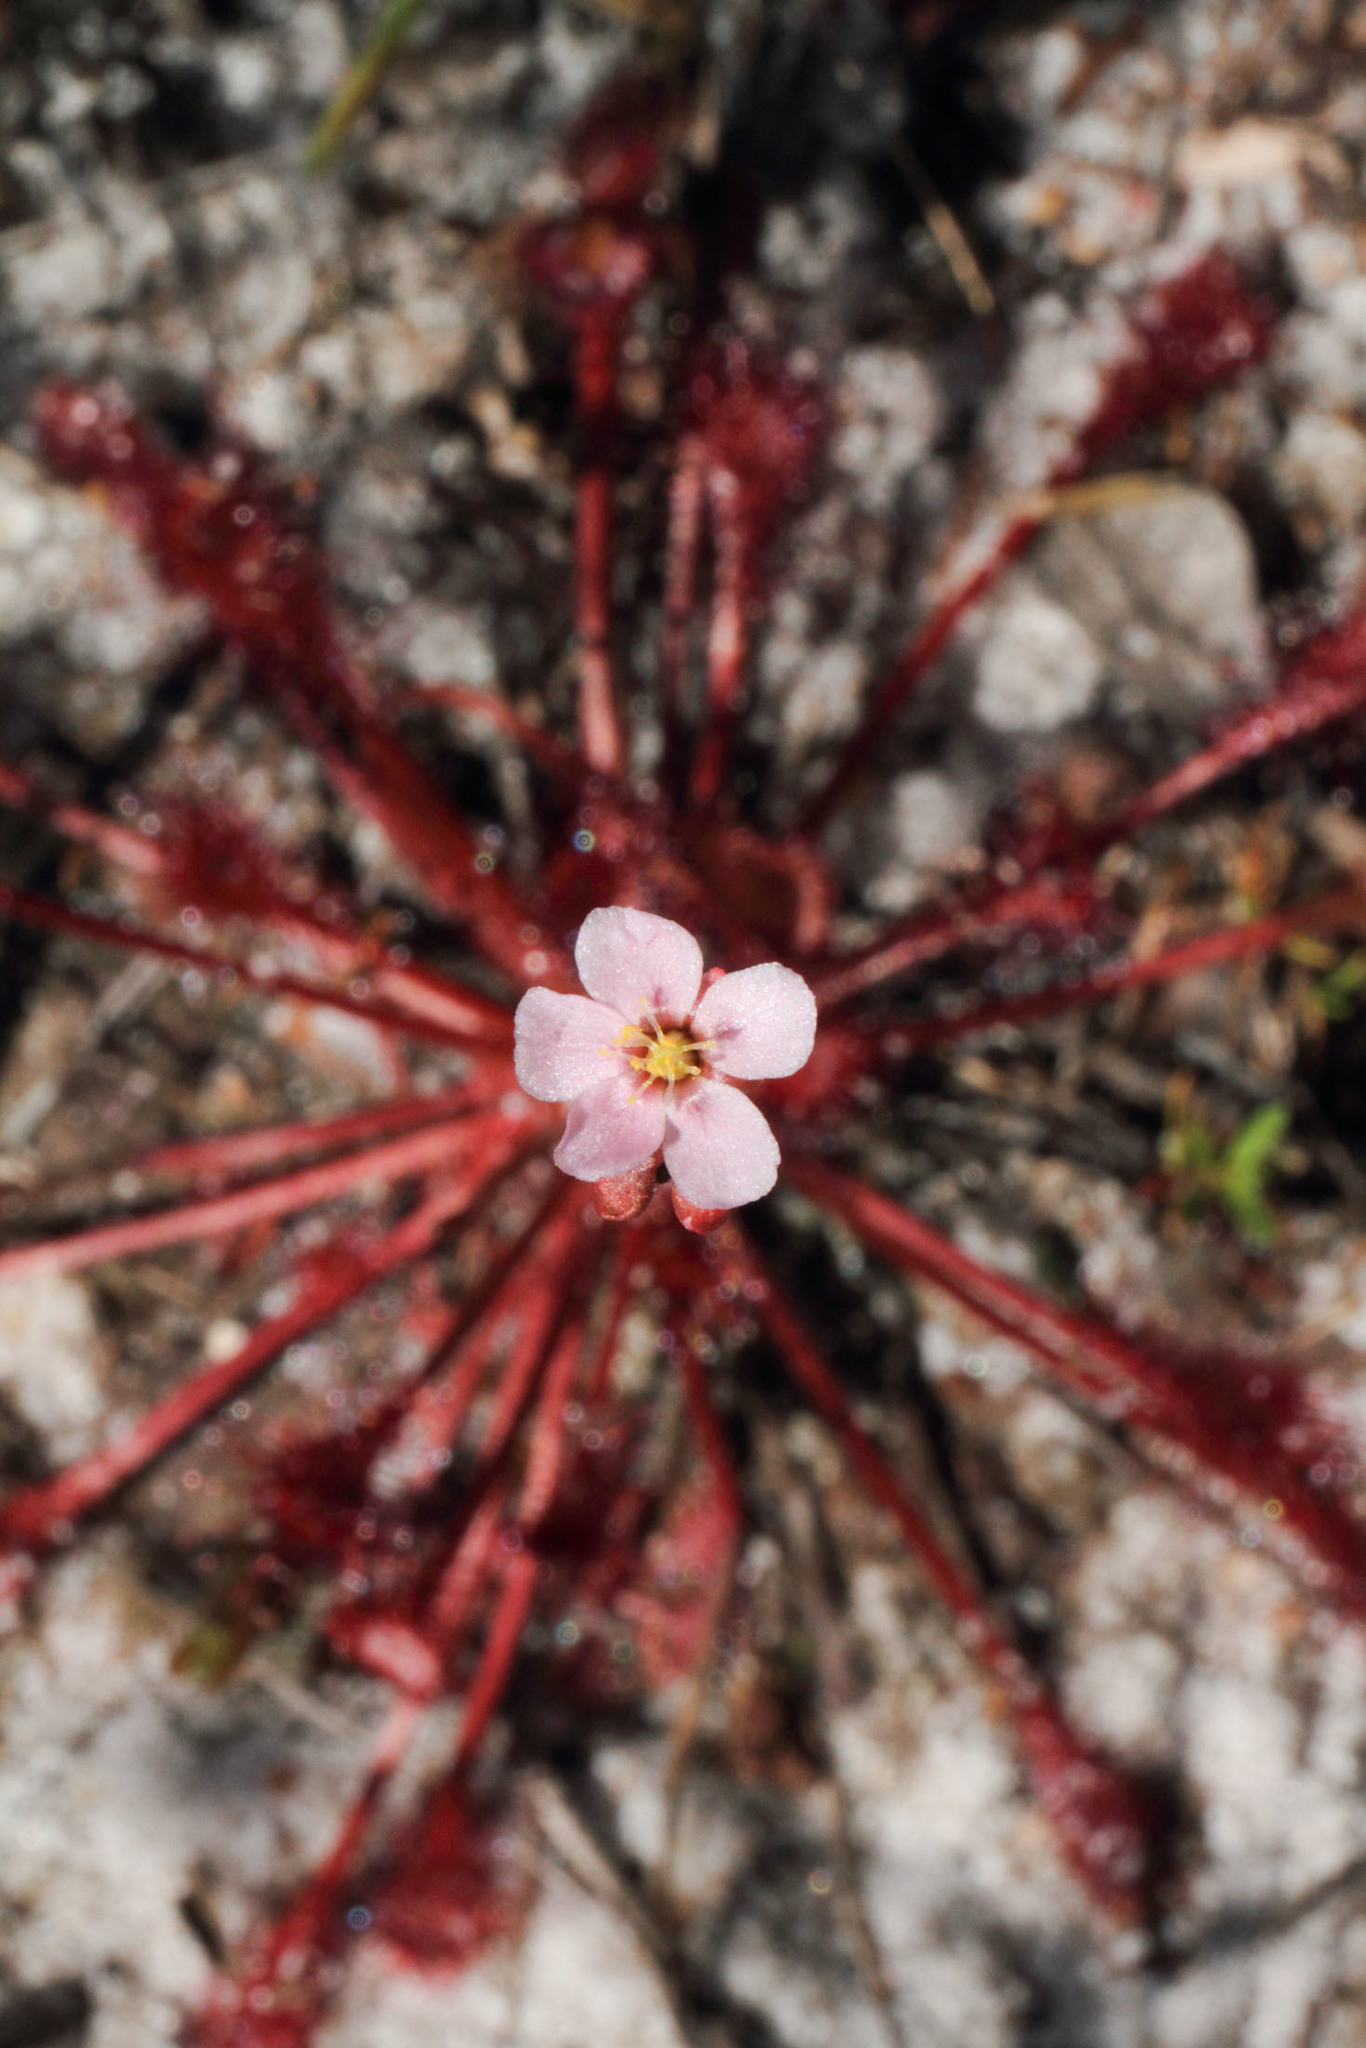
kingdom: Plantae
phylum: Tracheophyta
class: Magnoliopsida
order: Caryophyllales
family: Droseraceae
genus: Drosera
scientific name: Drosera capillaris
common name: Pink sundew
